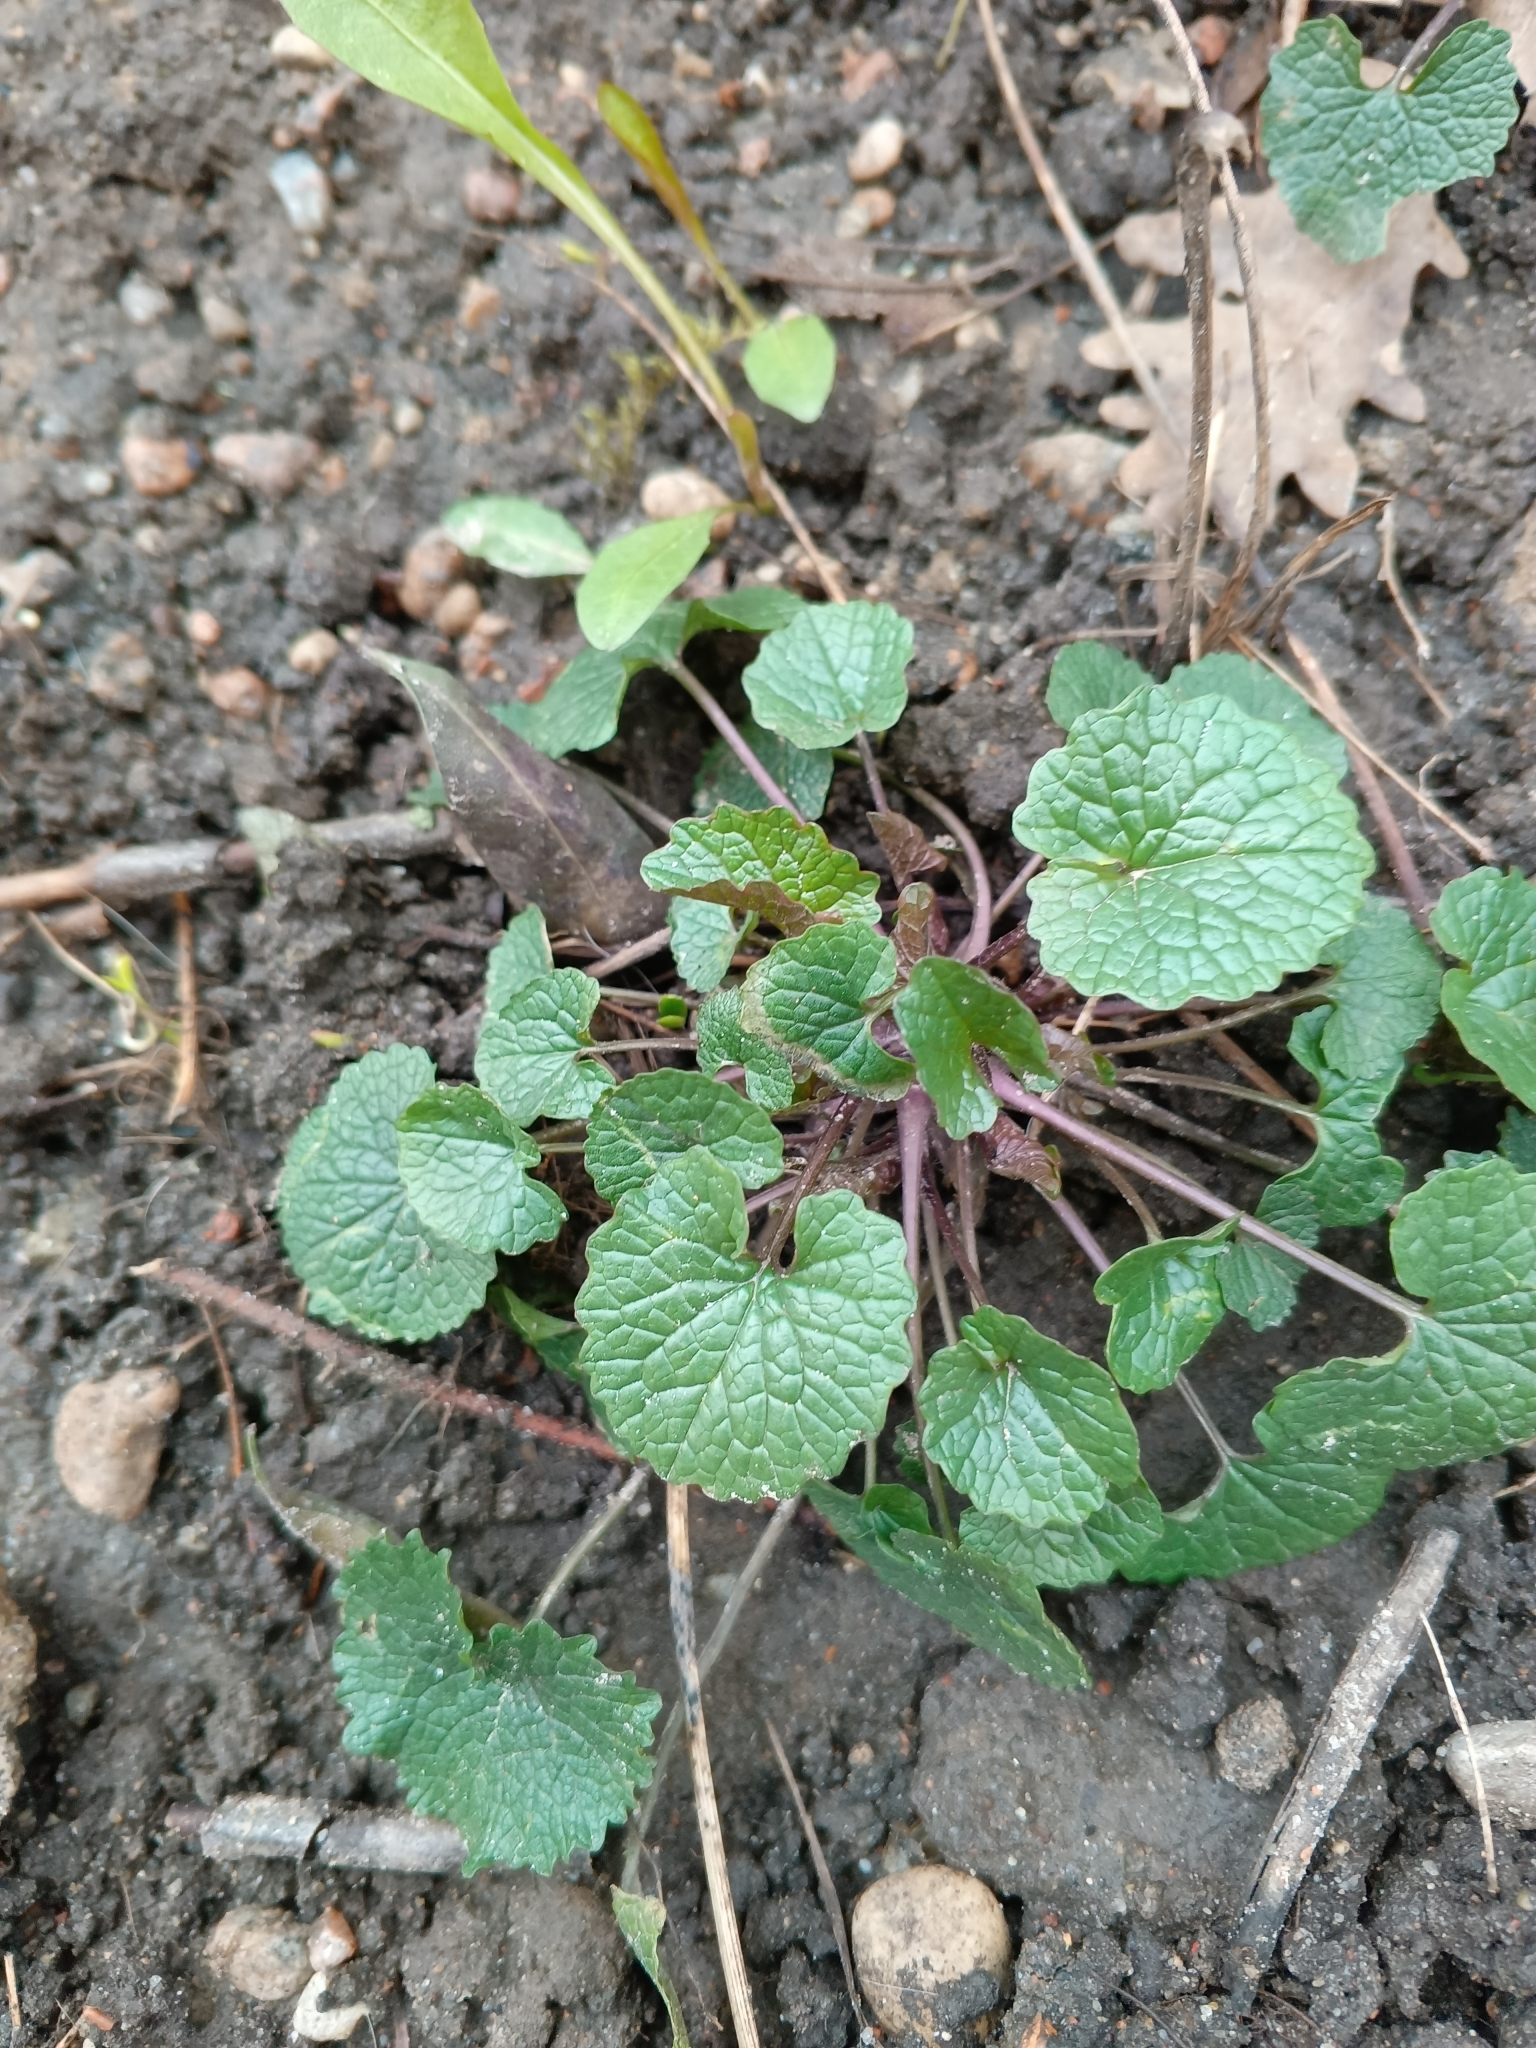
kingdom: Plantae
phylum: Tracheophyta
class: Magnoliopsida
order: Brassicales
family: Brassicaceae
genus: Alliaria
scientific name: Alliaria petiolata
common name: Garlic mustard
